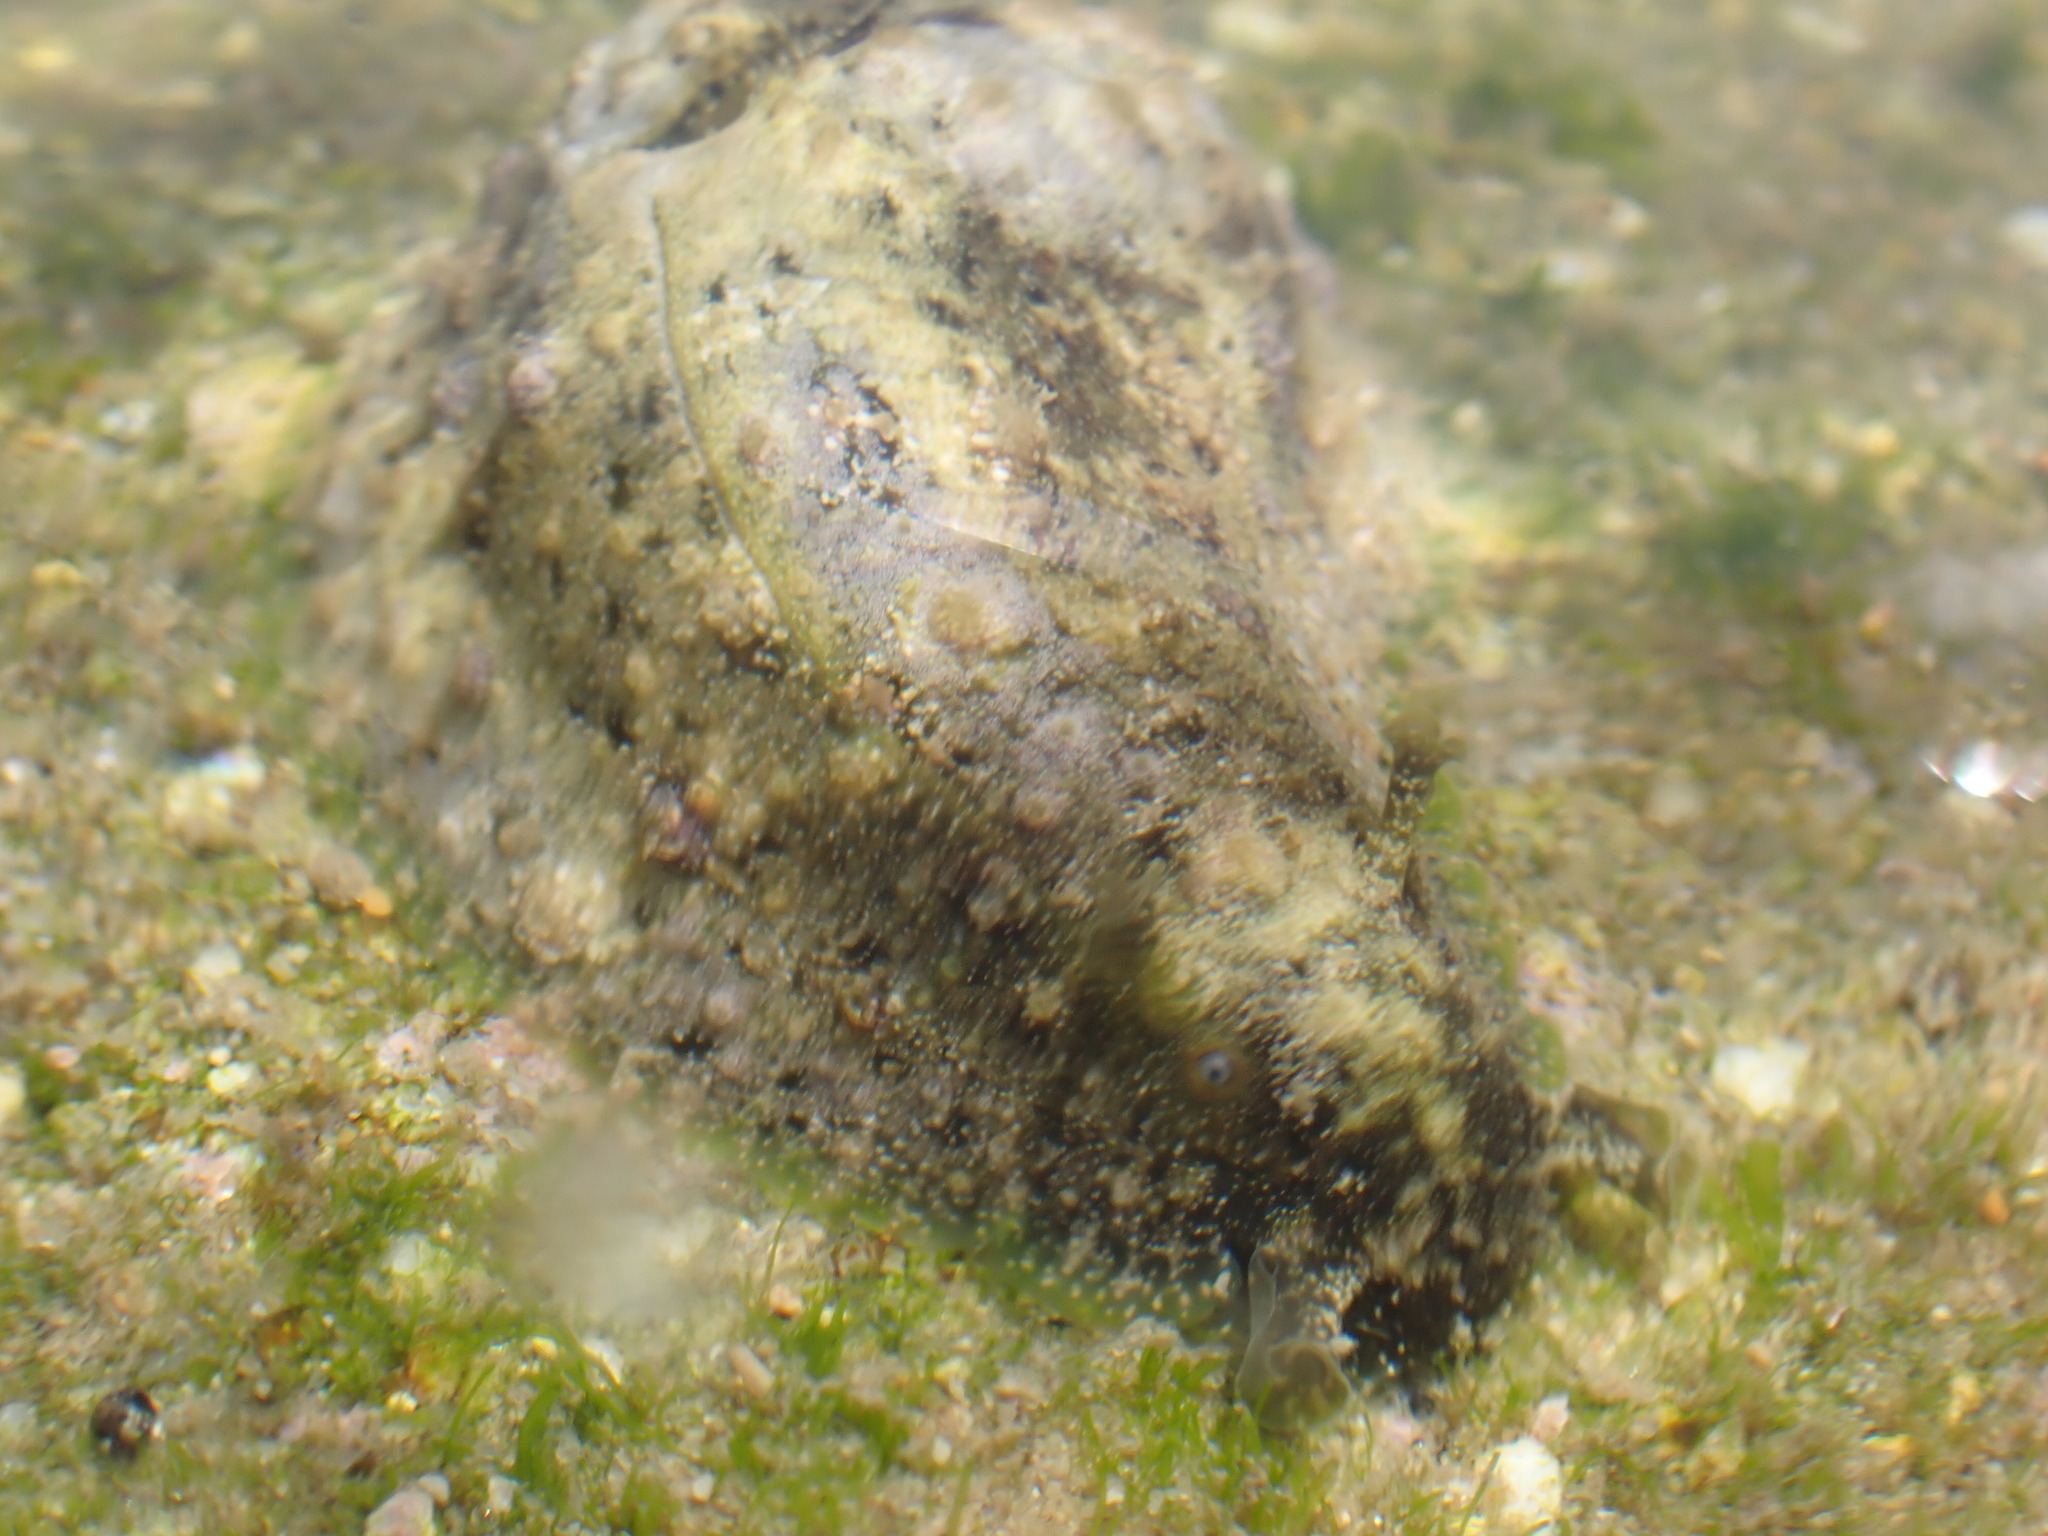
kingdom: Animalia
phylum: Mollusca
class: Gastropoda
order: Aplysiida
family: Aplysiidae
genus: Dolabrifera
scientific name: Dolabrifera dolabrifera
